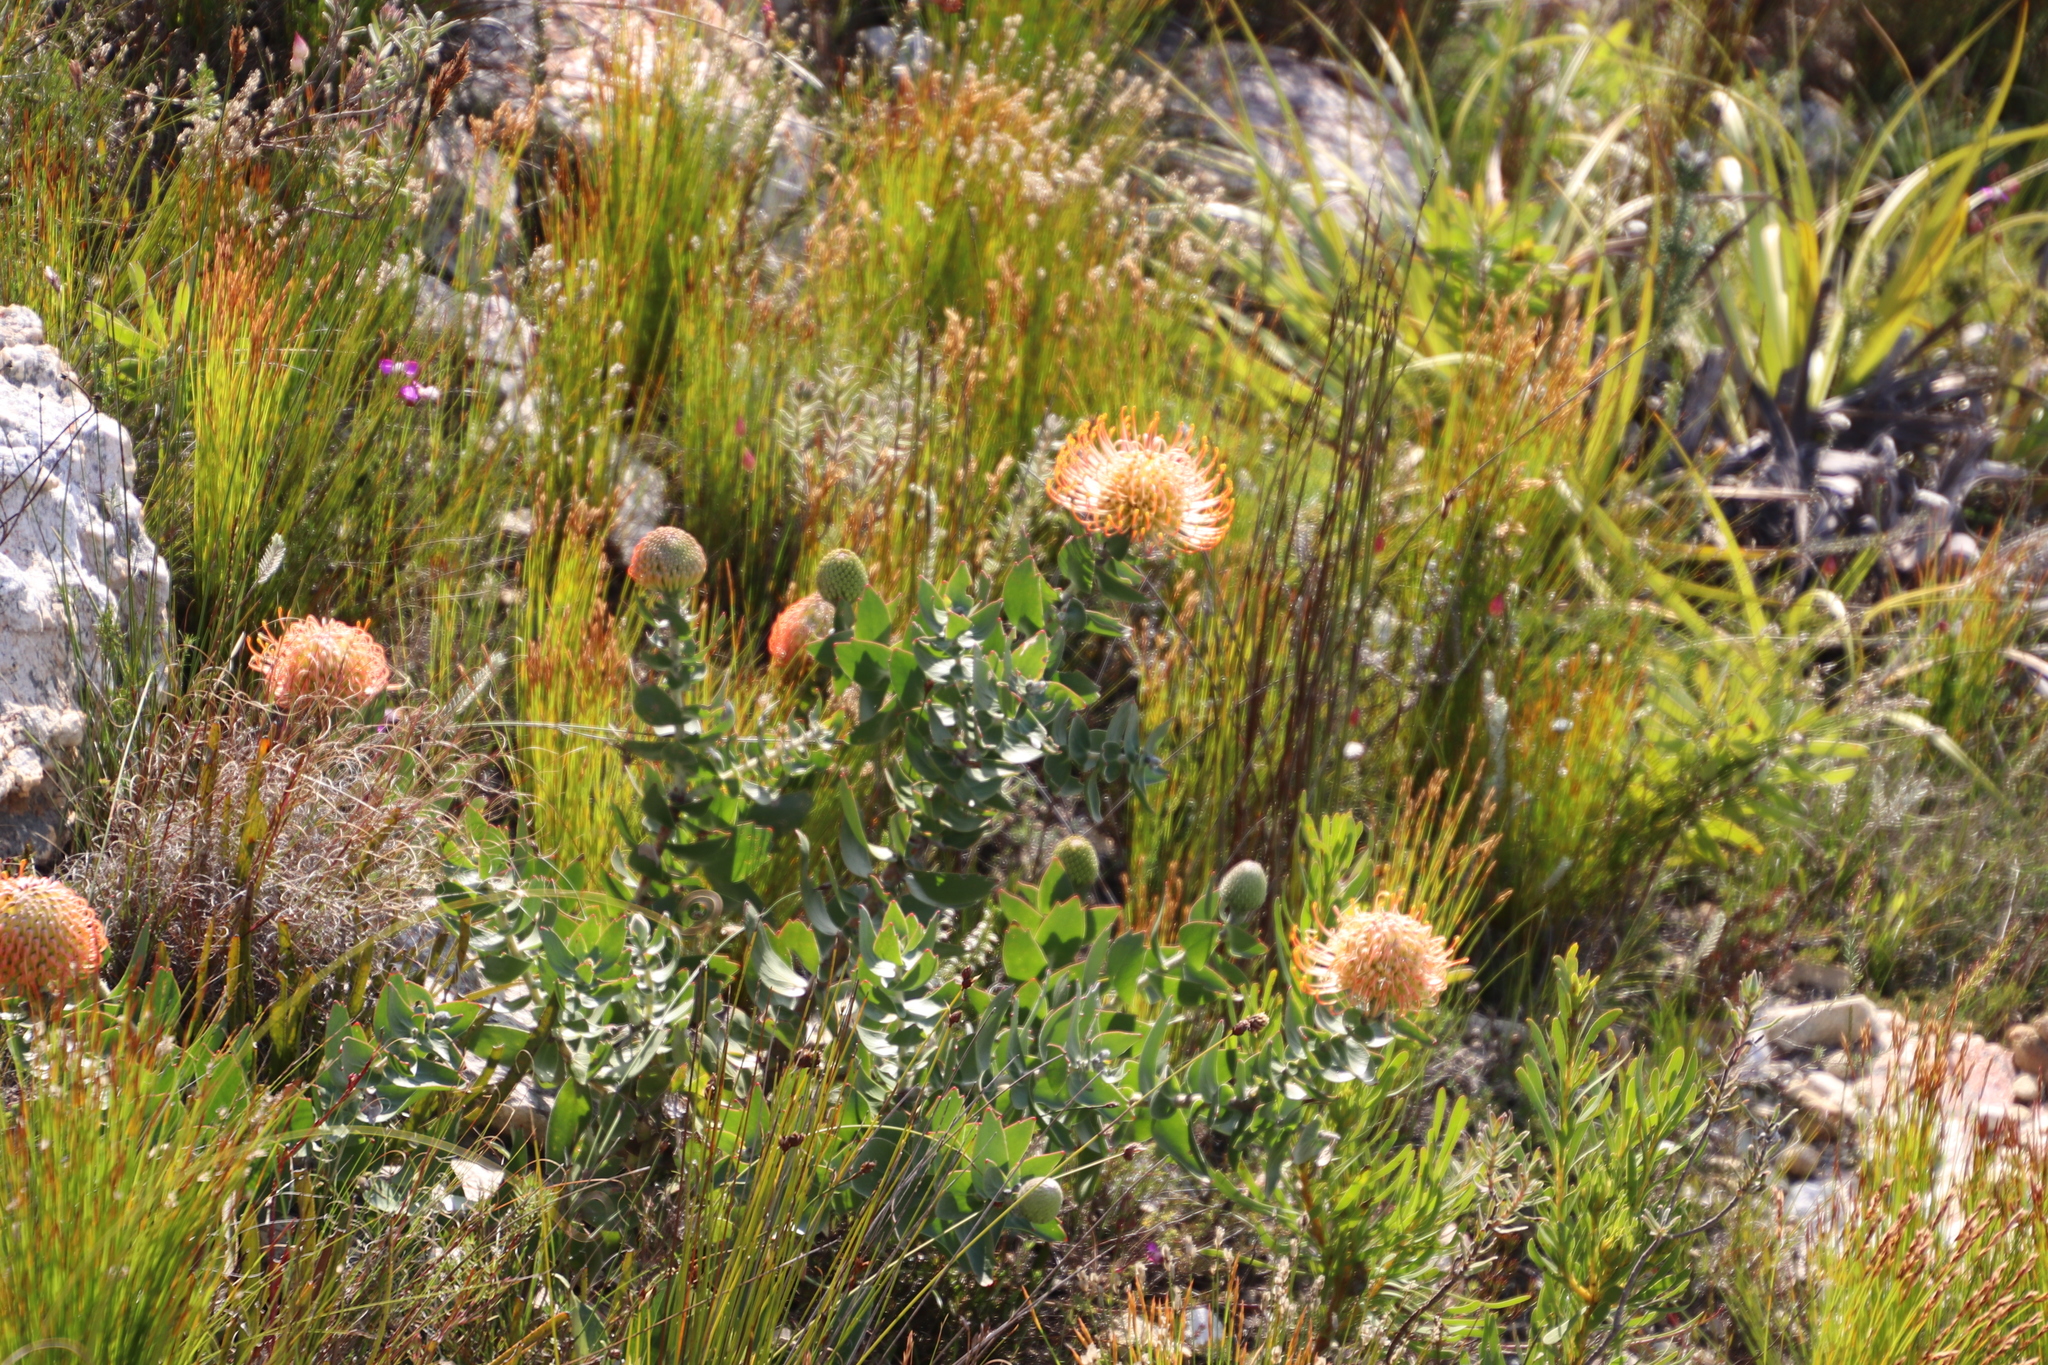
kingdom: Plantae
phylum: Tracheophyta
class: Magnoliopsida
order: Proteales
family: Proteaceae
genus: Leucospermum
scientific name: Leucospermum cordifolium
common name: Red pincushion-protea
